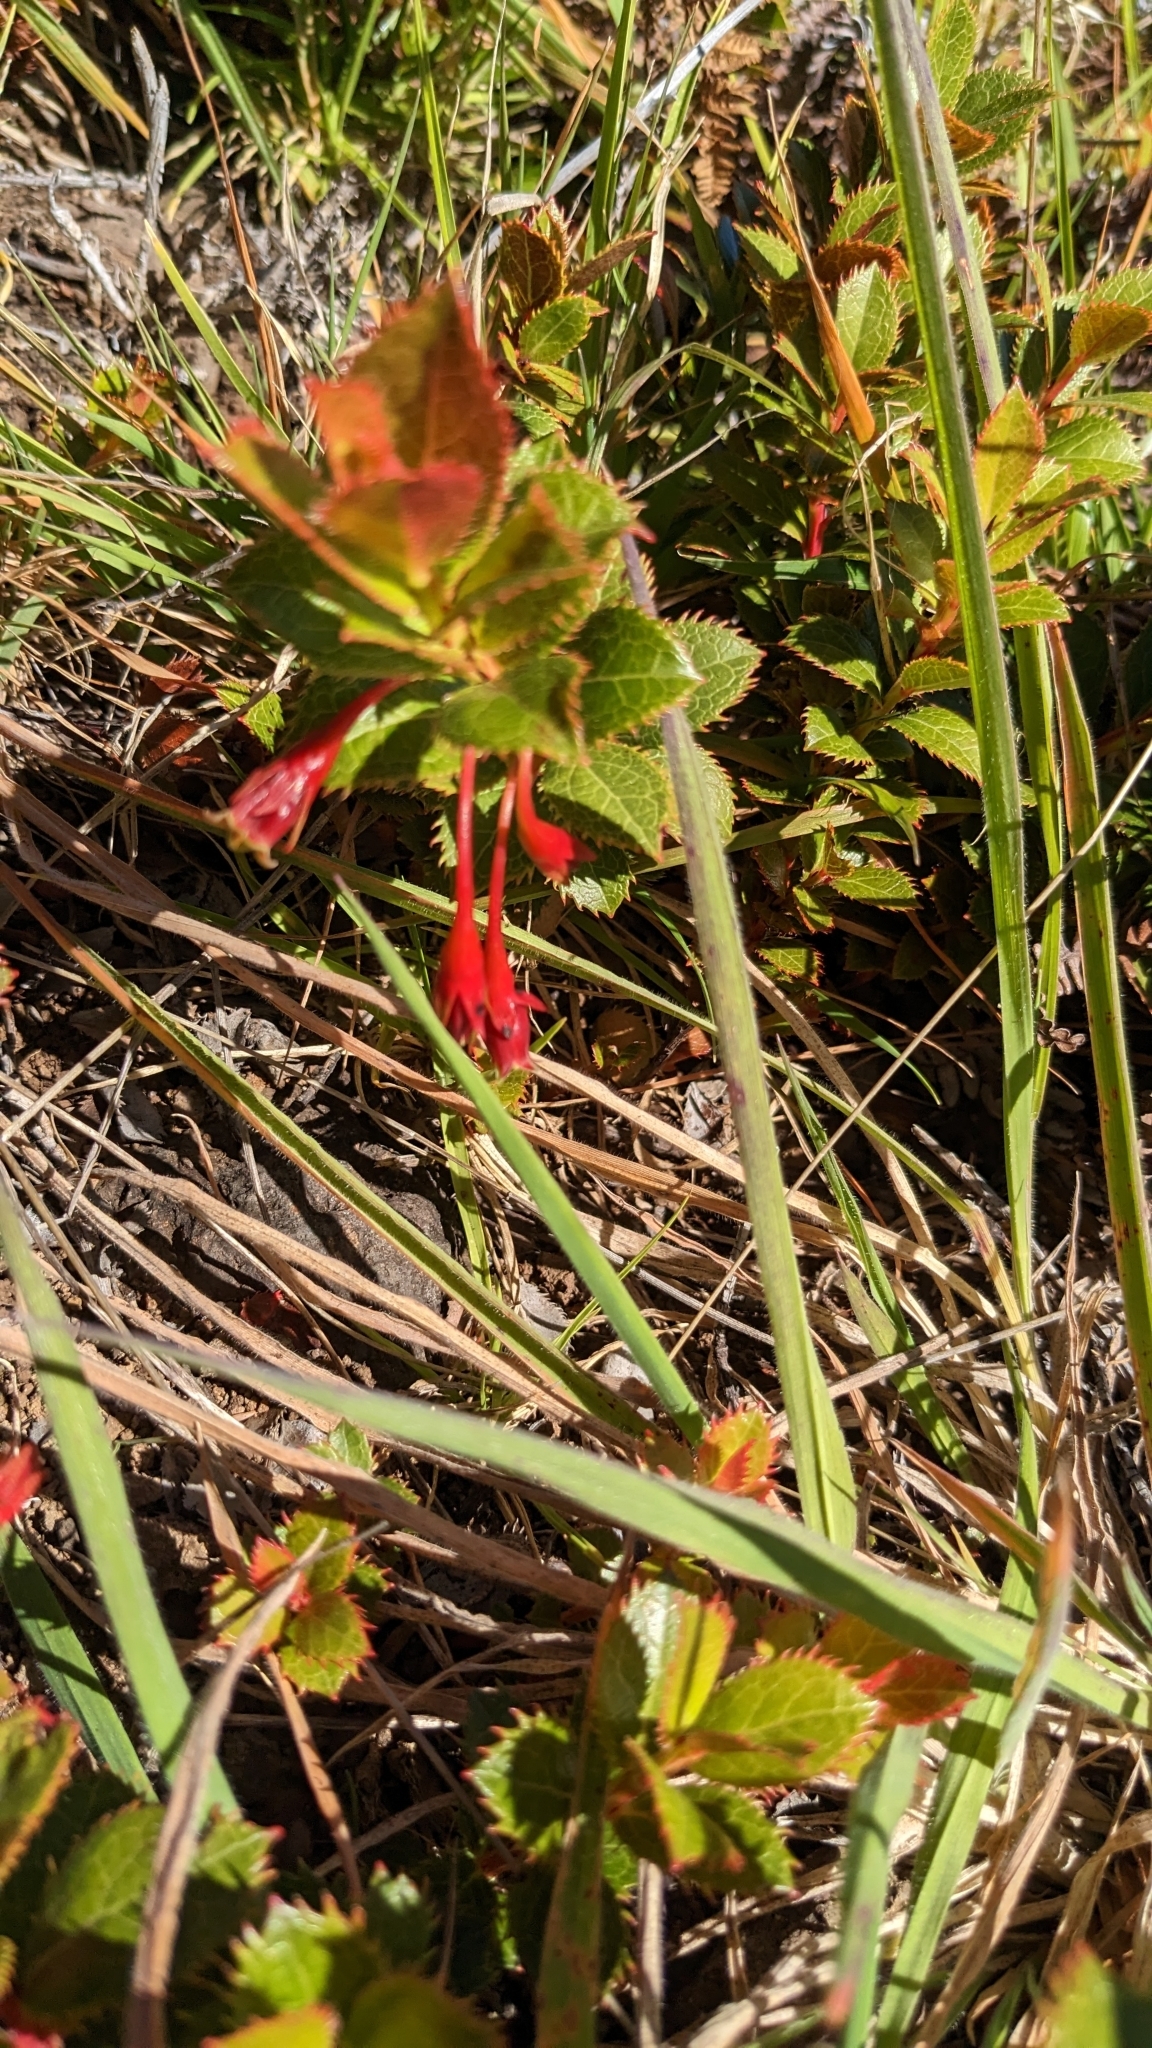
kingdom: Plantae
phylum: Tracheophyta
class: Magnoliopsida
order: Ericales
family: Ericaceae
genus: Vaccinium
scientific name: Vaccinium dentatum
